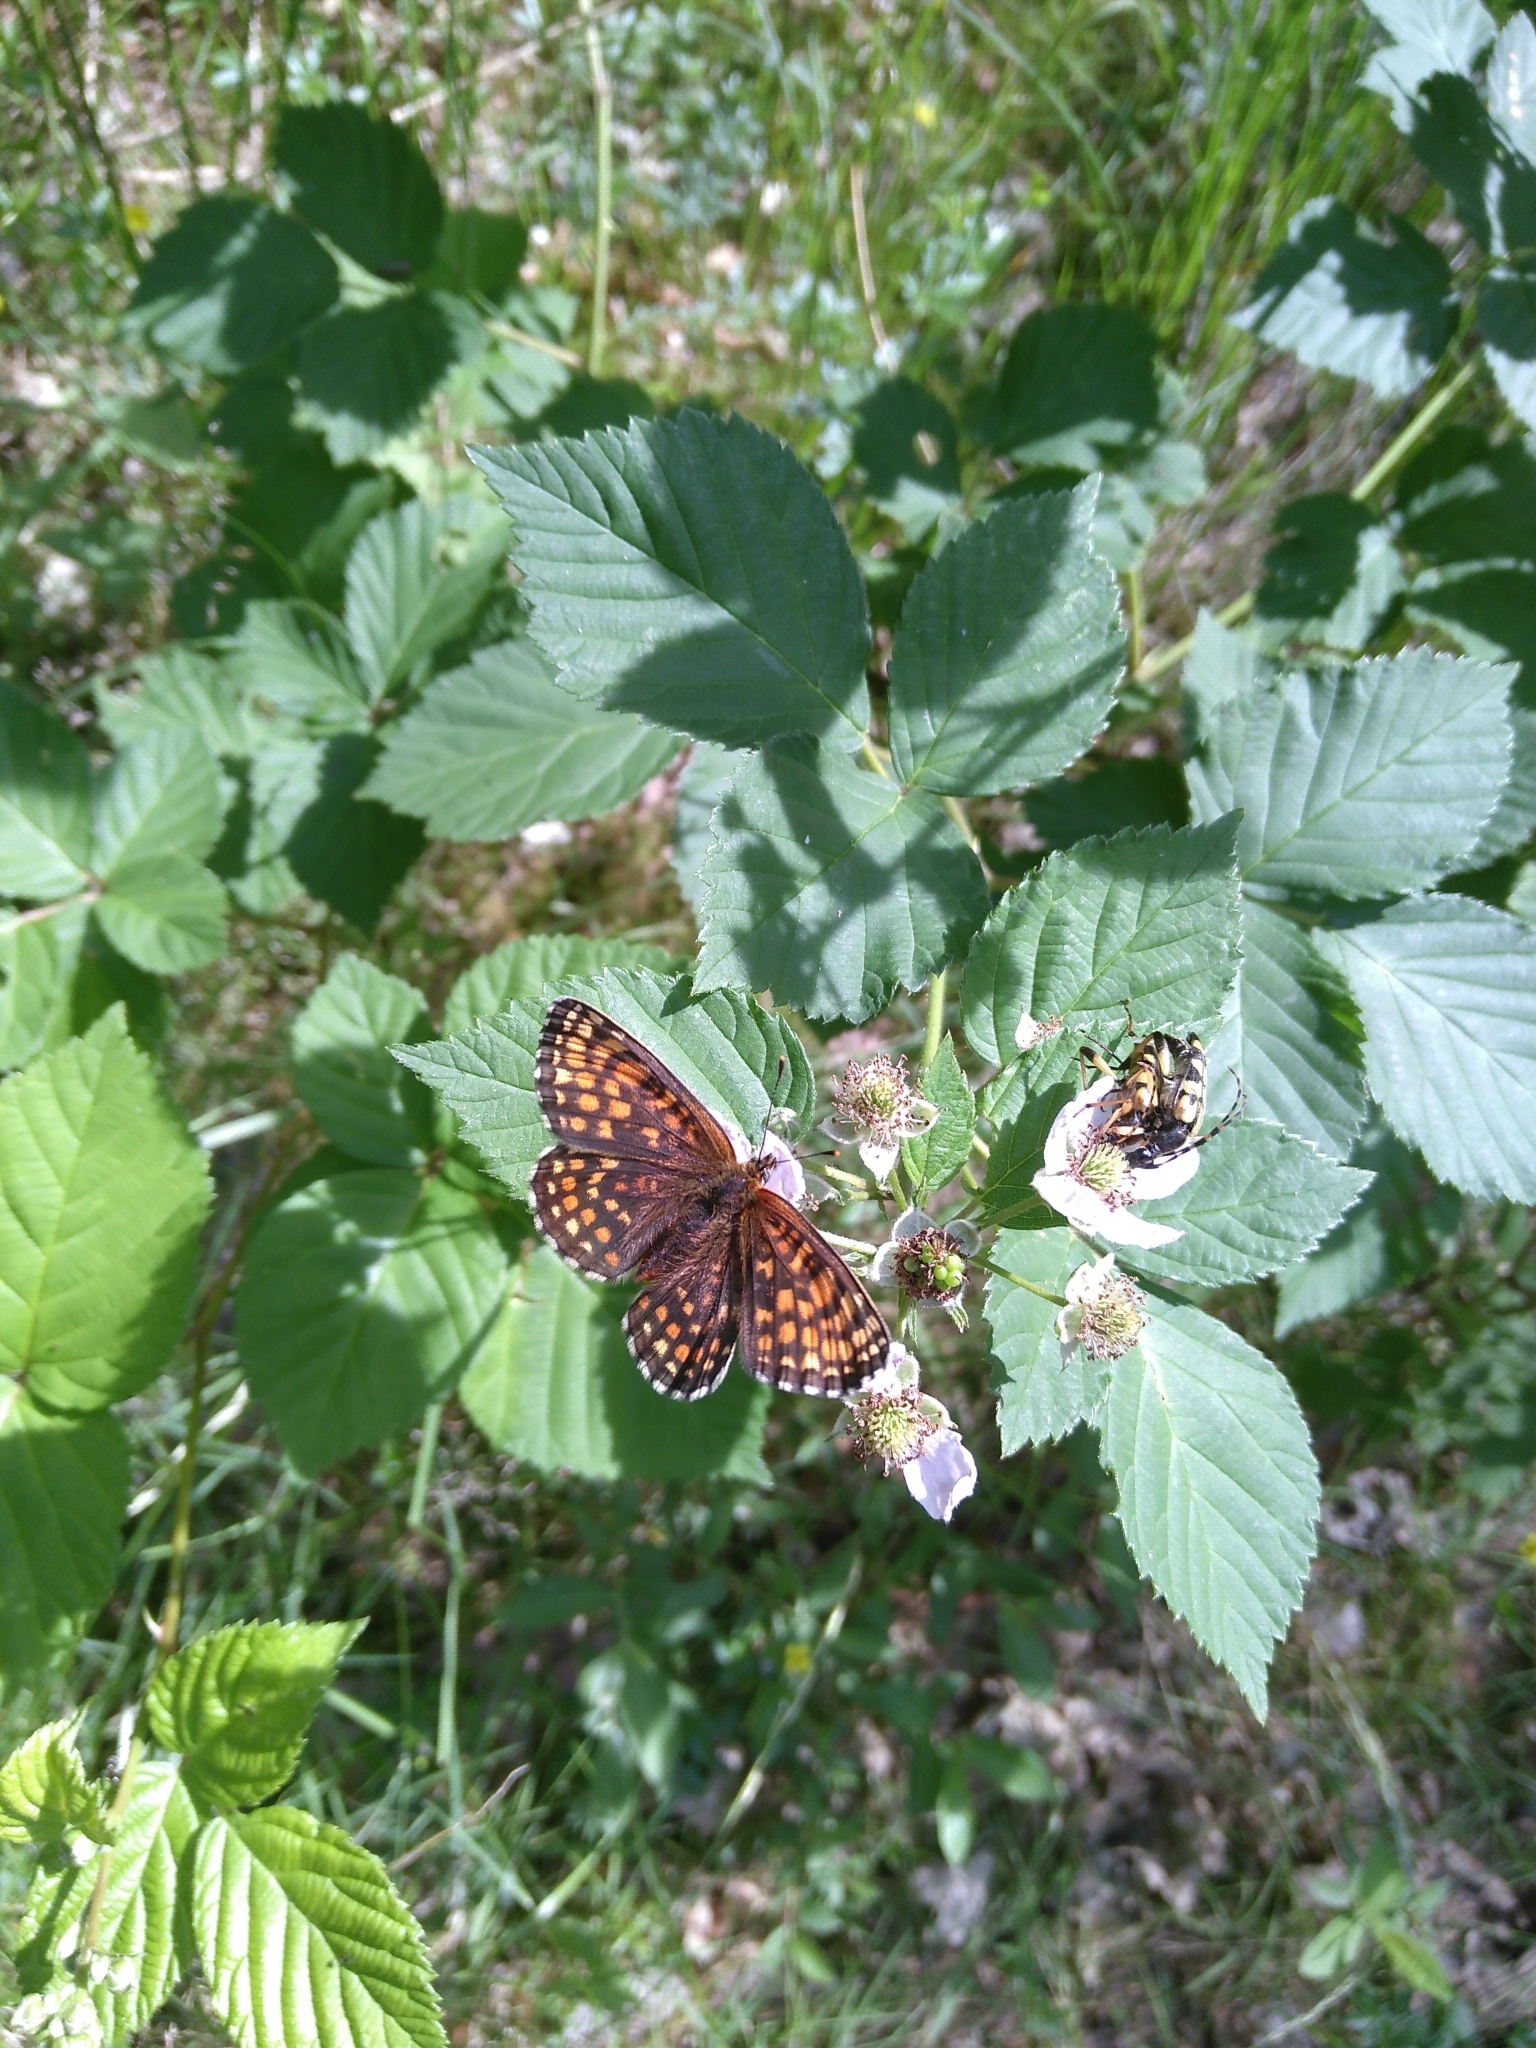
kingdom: Animalia
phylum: Arthropoda
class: Insecta
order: Lepidoptera
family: Nymphalidae
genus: Melitaea
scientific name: Melitaea athalia
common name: Heath fritillary
